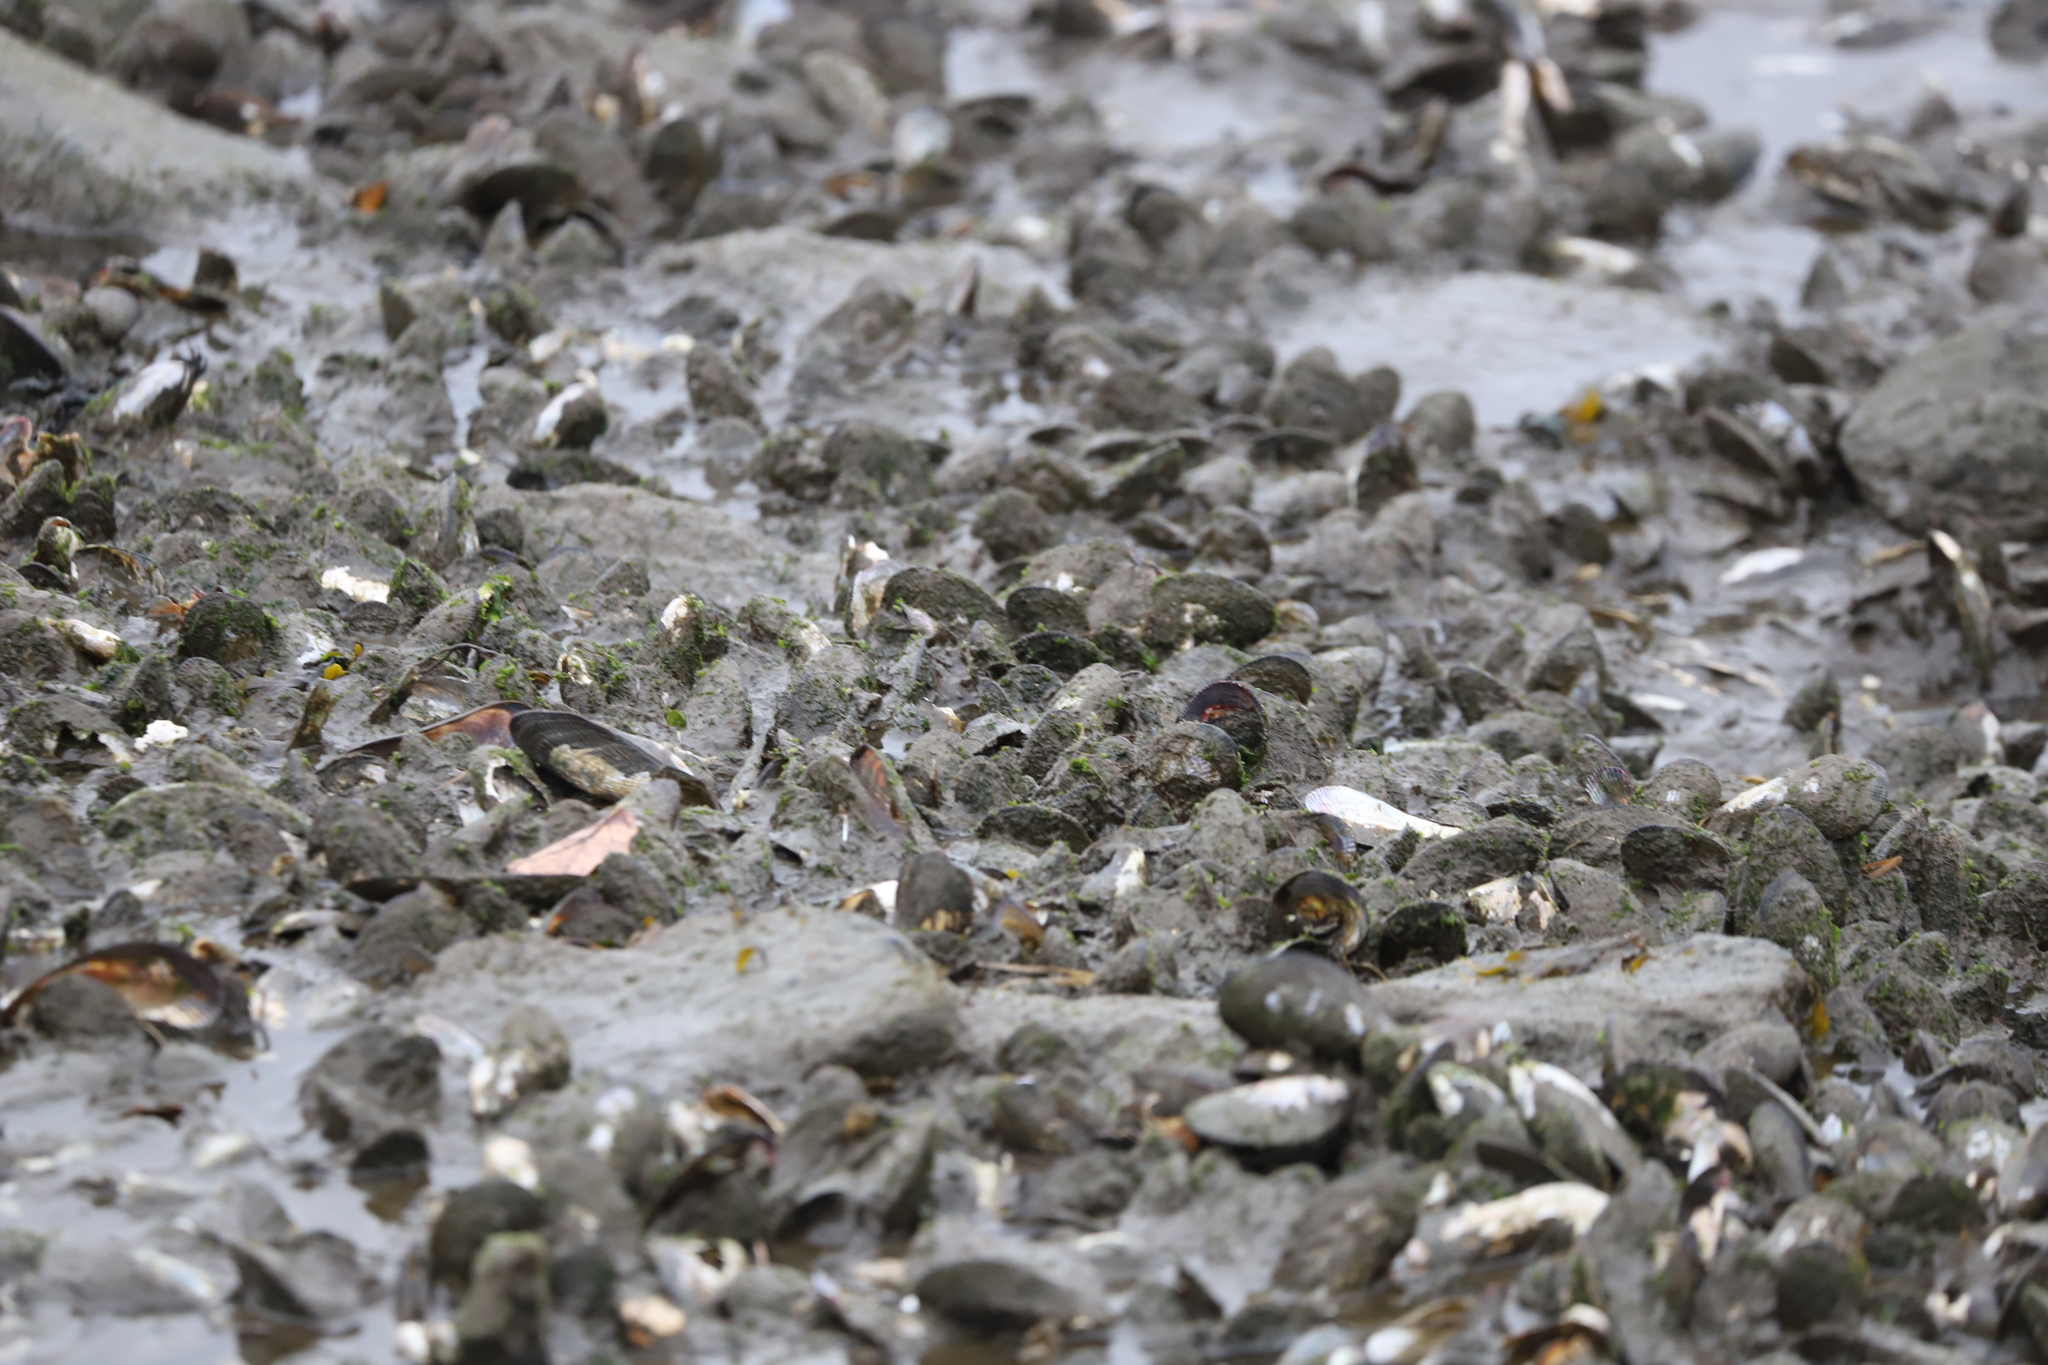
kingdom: Animalia
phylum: Mollusca
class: Bivalvia
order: Mytilida
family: Mytilidae
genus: Geukensia
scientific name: Geukensia demissa
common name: Ribbed mussel
